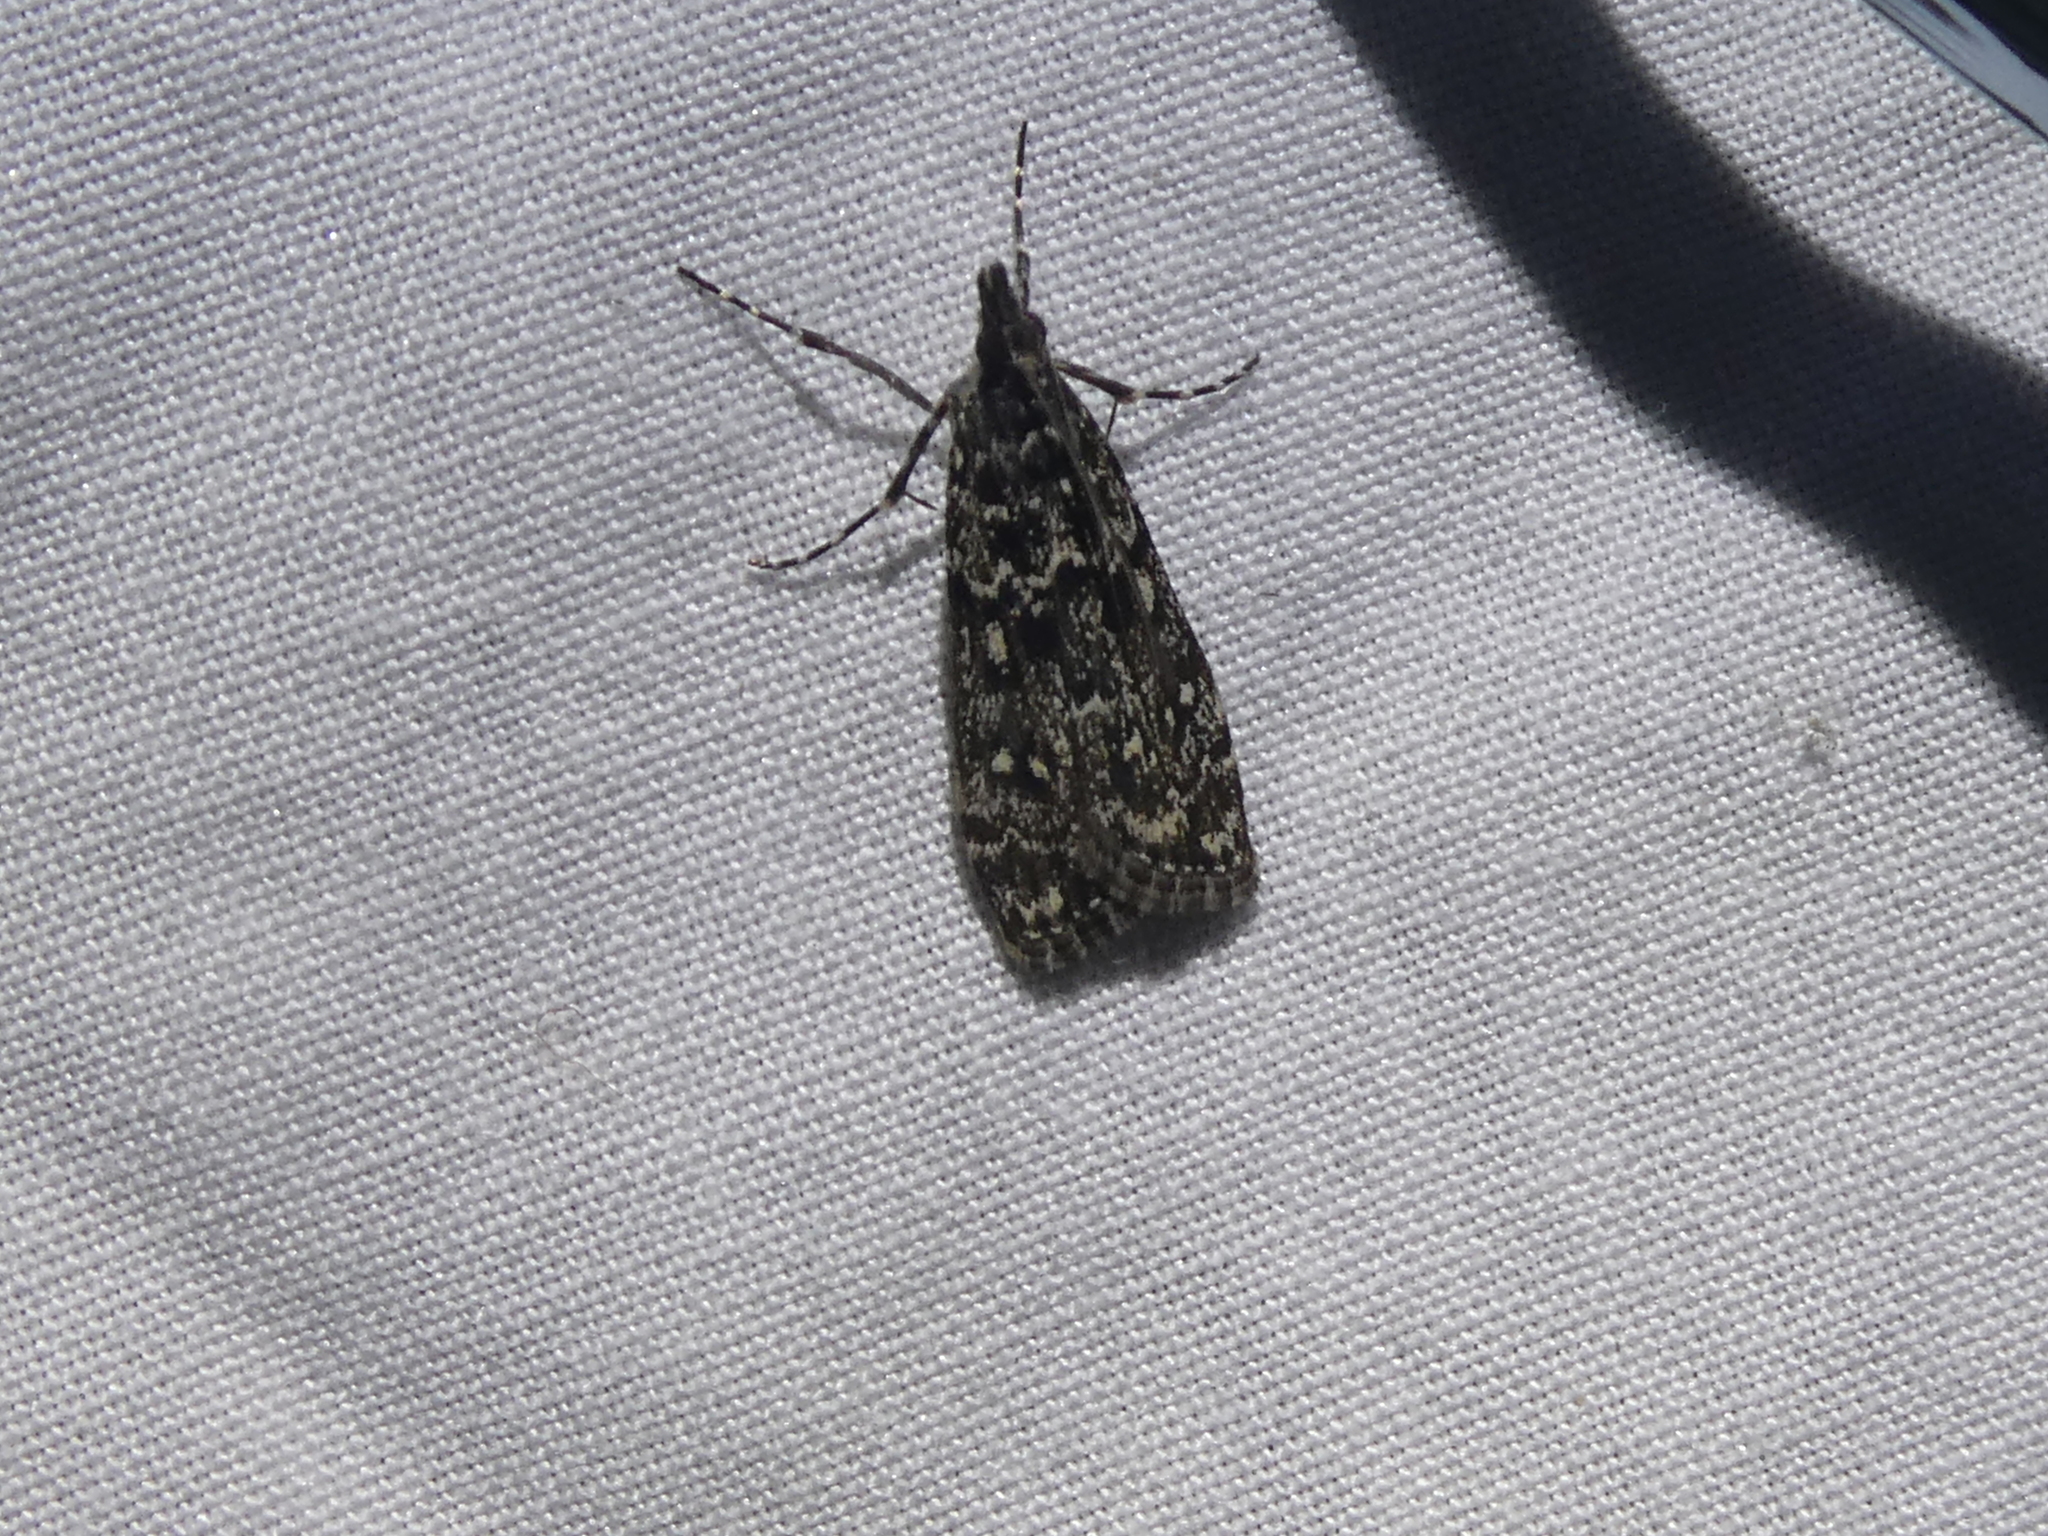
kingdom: Animalia
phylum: Arthropoda
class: Insecta
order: Lepidoptera
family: Crambidae
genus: Eudonia
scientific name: Eudonia philerga
